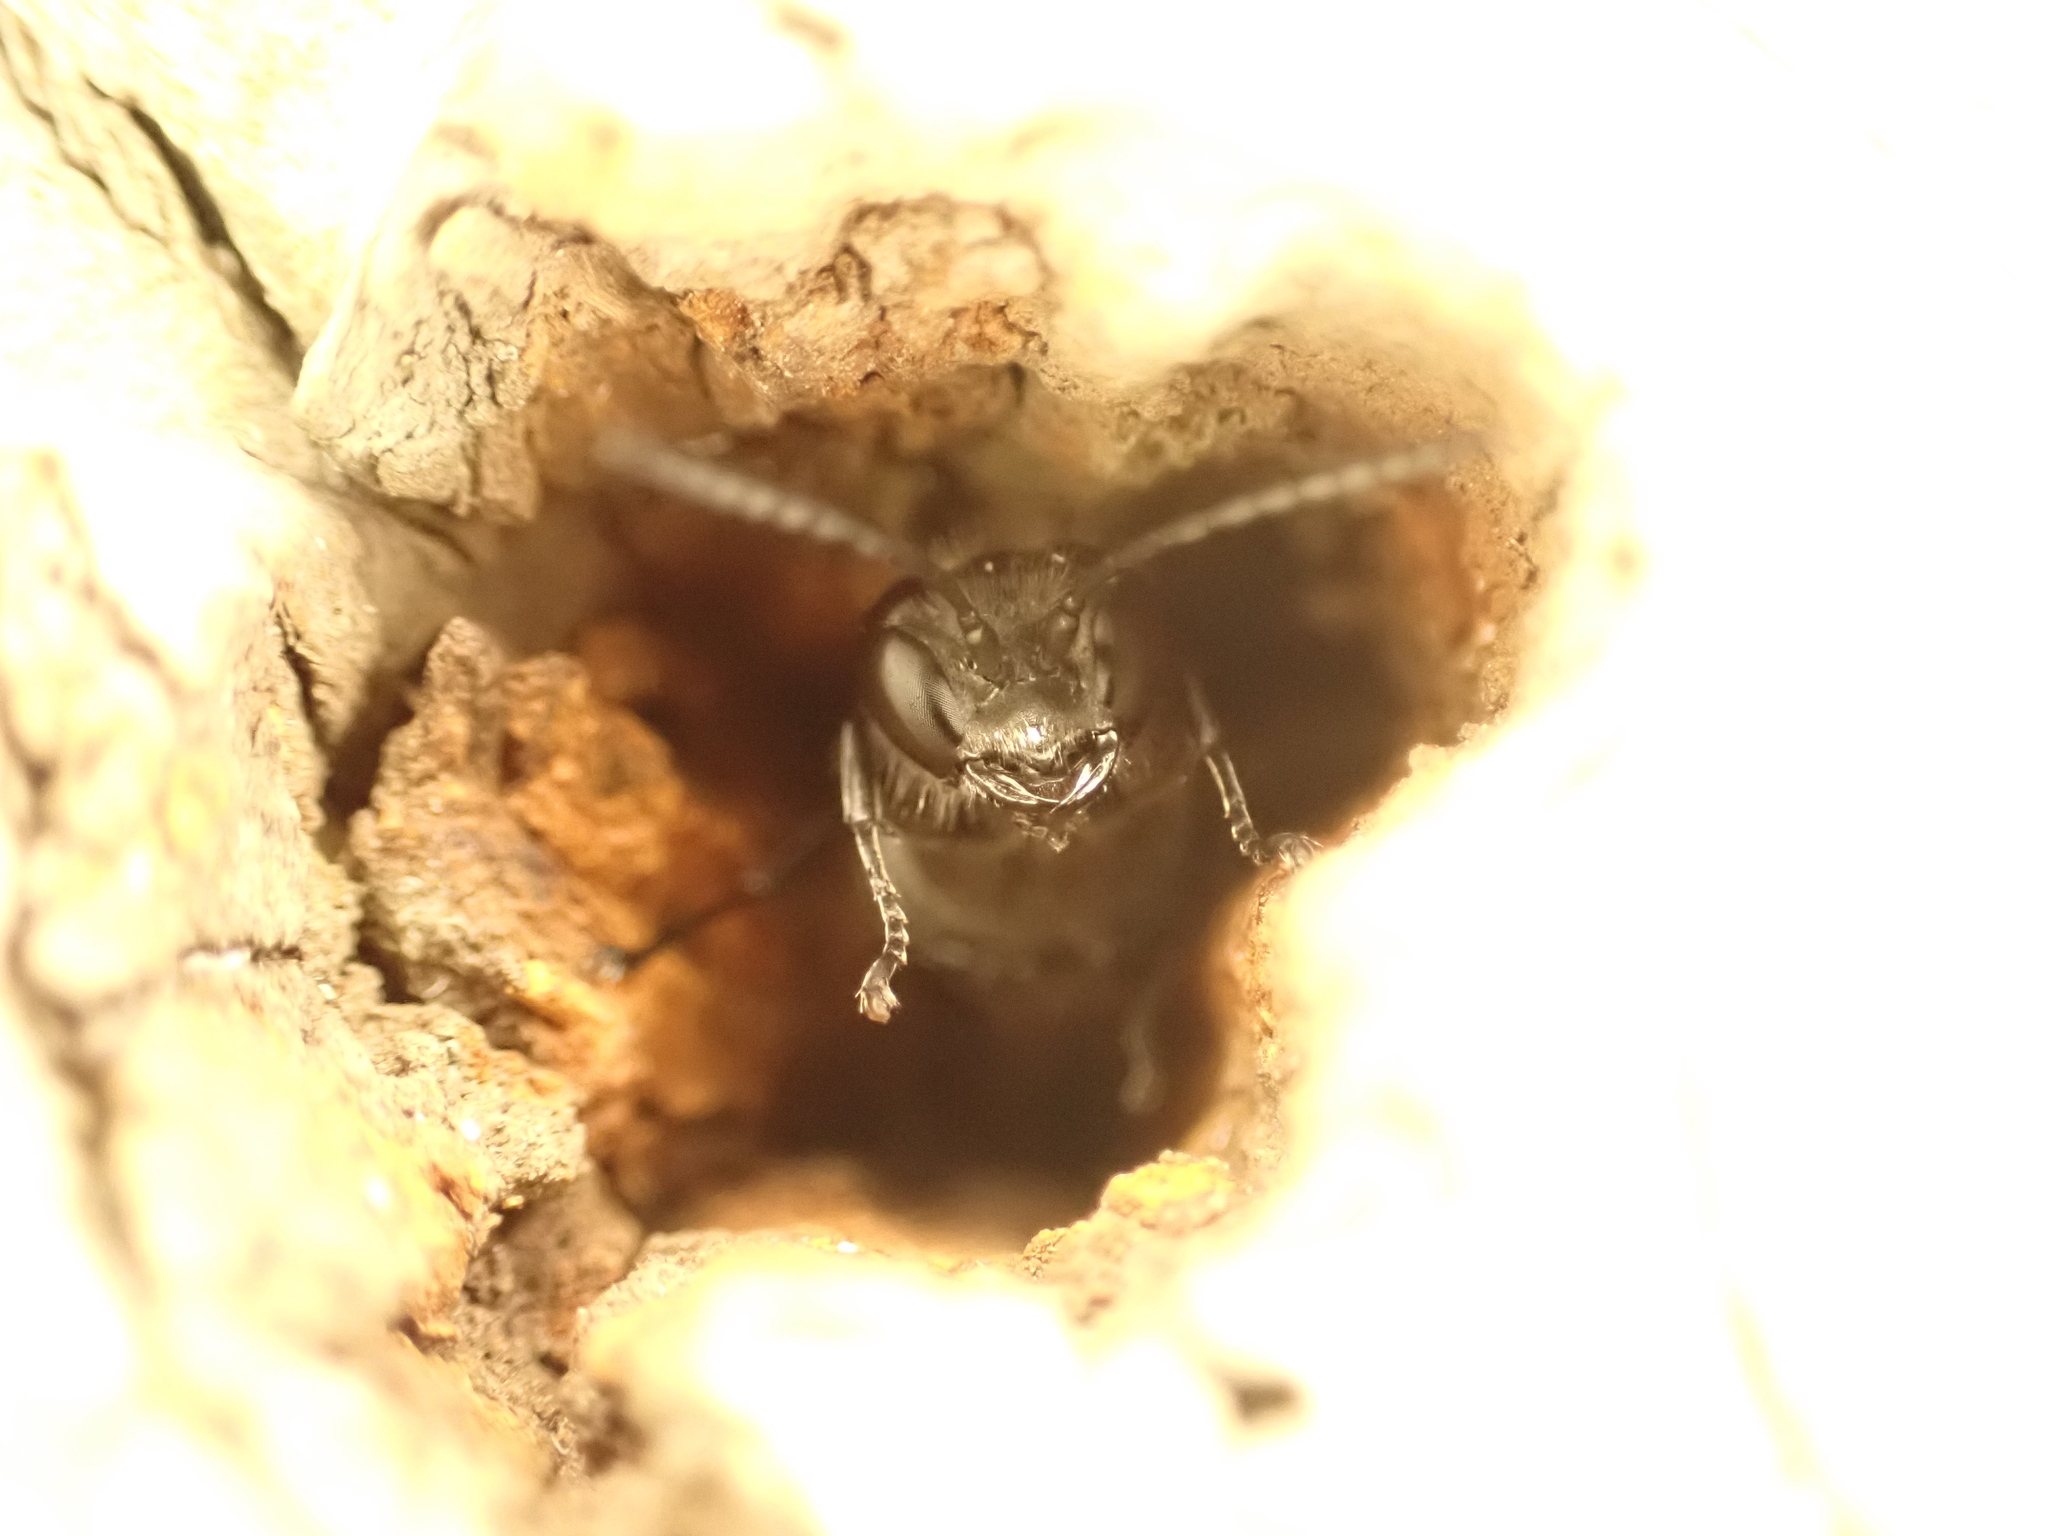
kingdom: Animalia
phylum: Arthropoda
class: Insecta
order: Hymenoptera
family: Crabronidae
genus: Pison
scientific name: Pison spinolae
